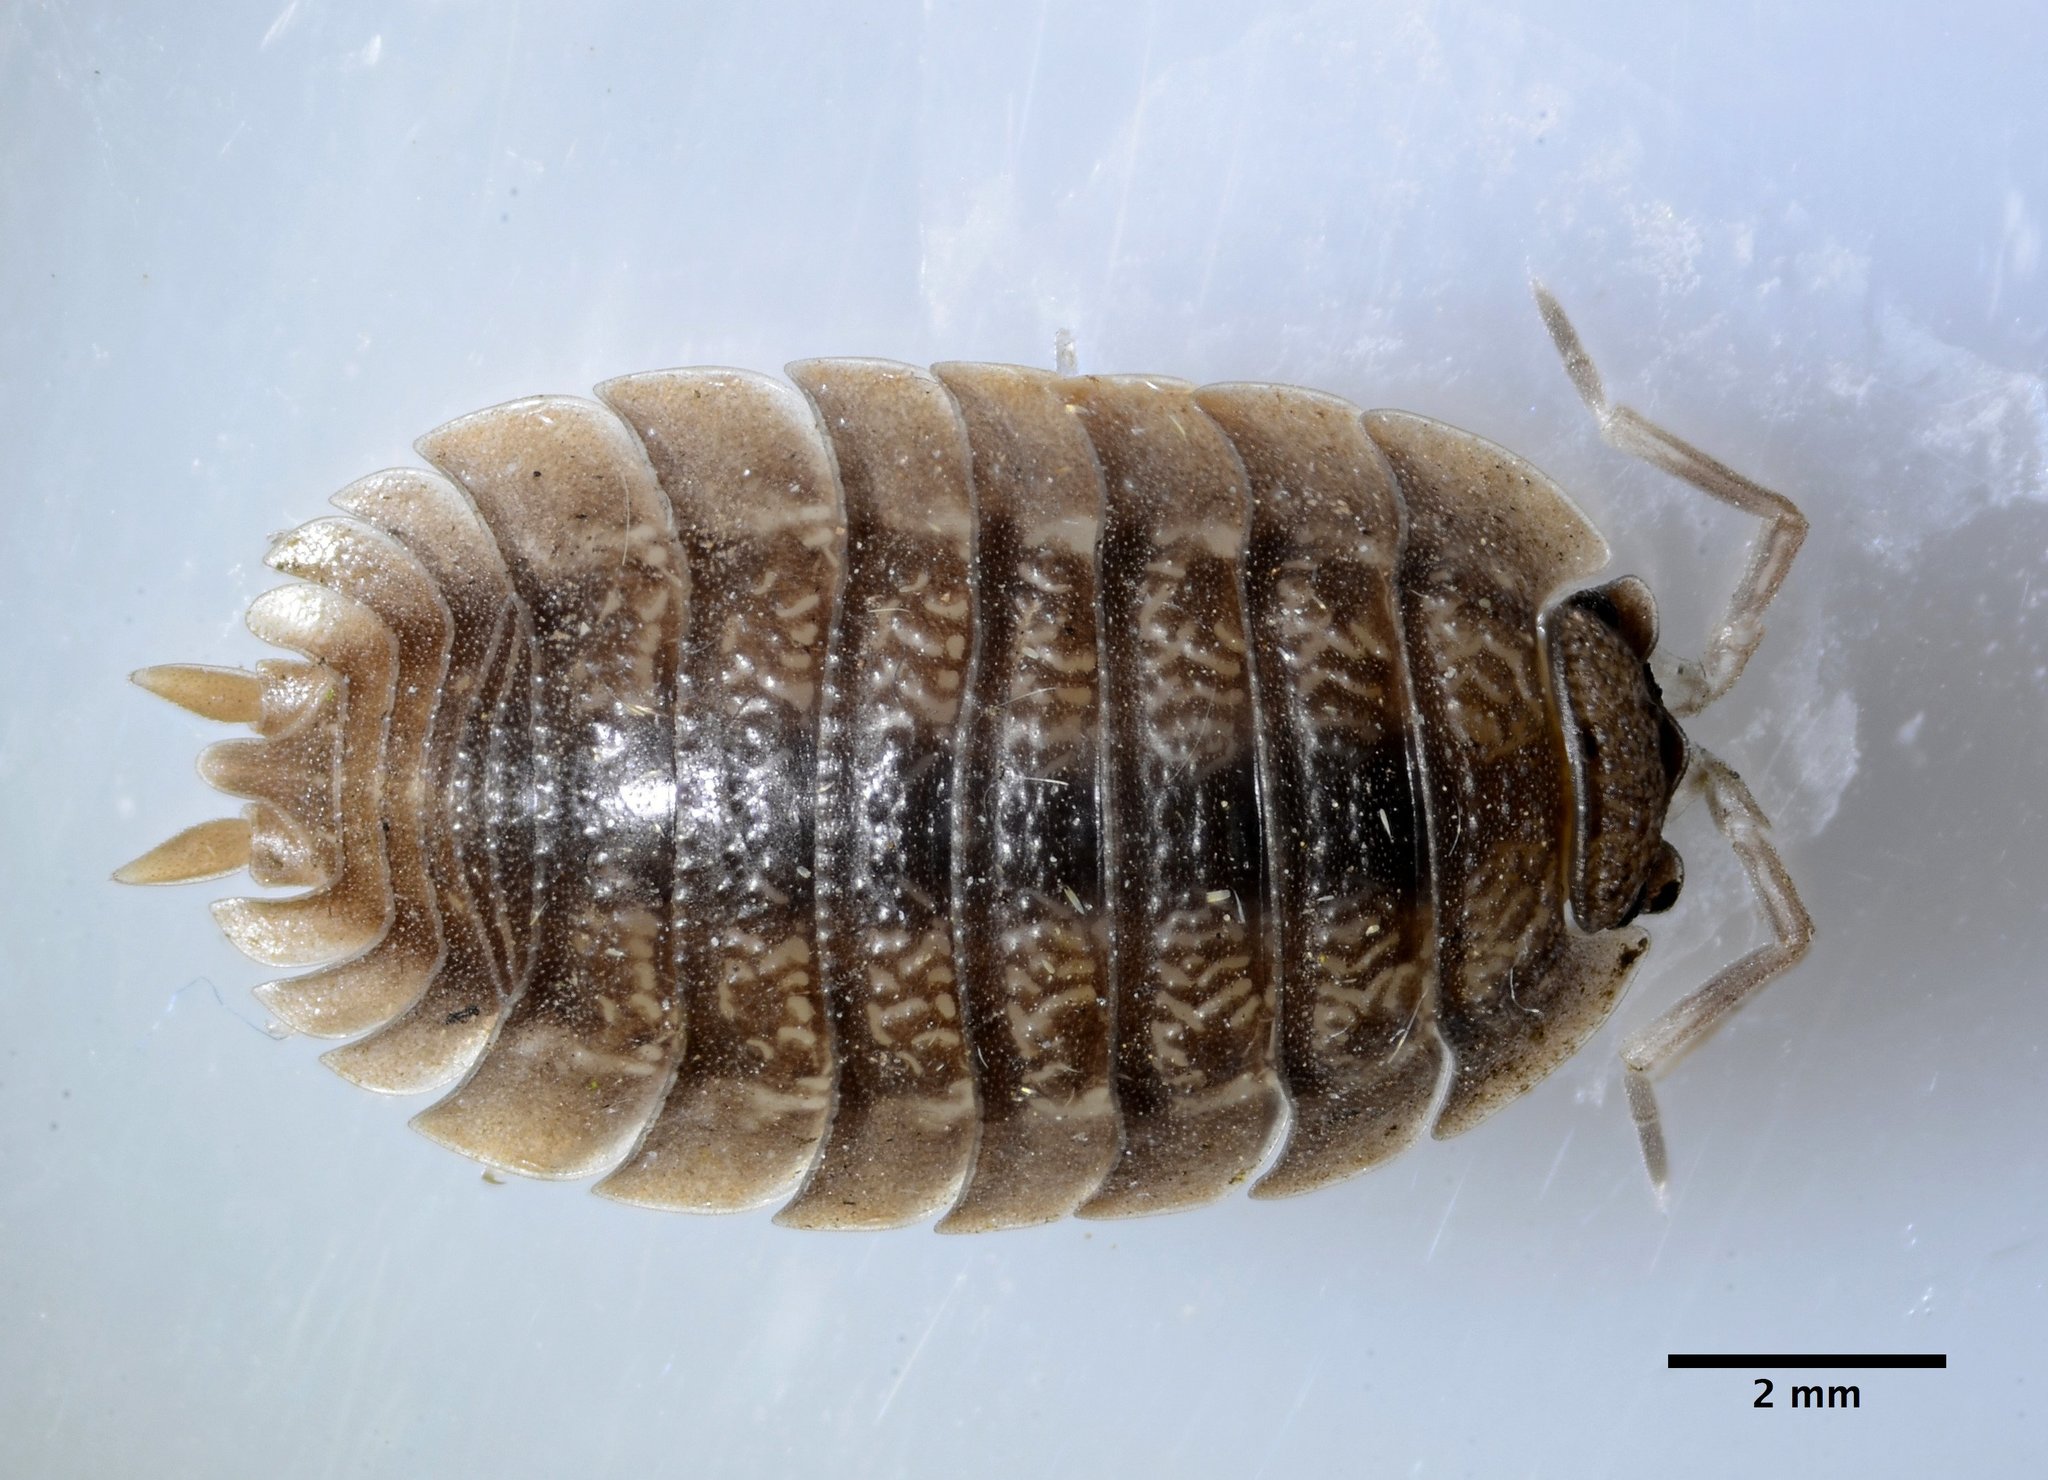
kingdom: Animalia
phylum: Arthropoda
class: Malacostraca
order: Isopoda
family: Porcellionidae
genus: Porcellio
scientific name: Porcellio dilatatus
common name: Isopod
